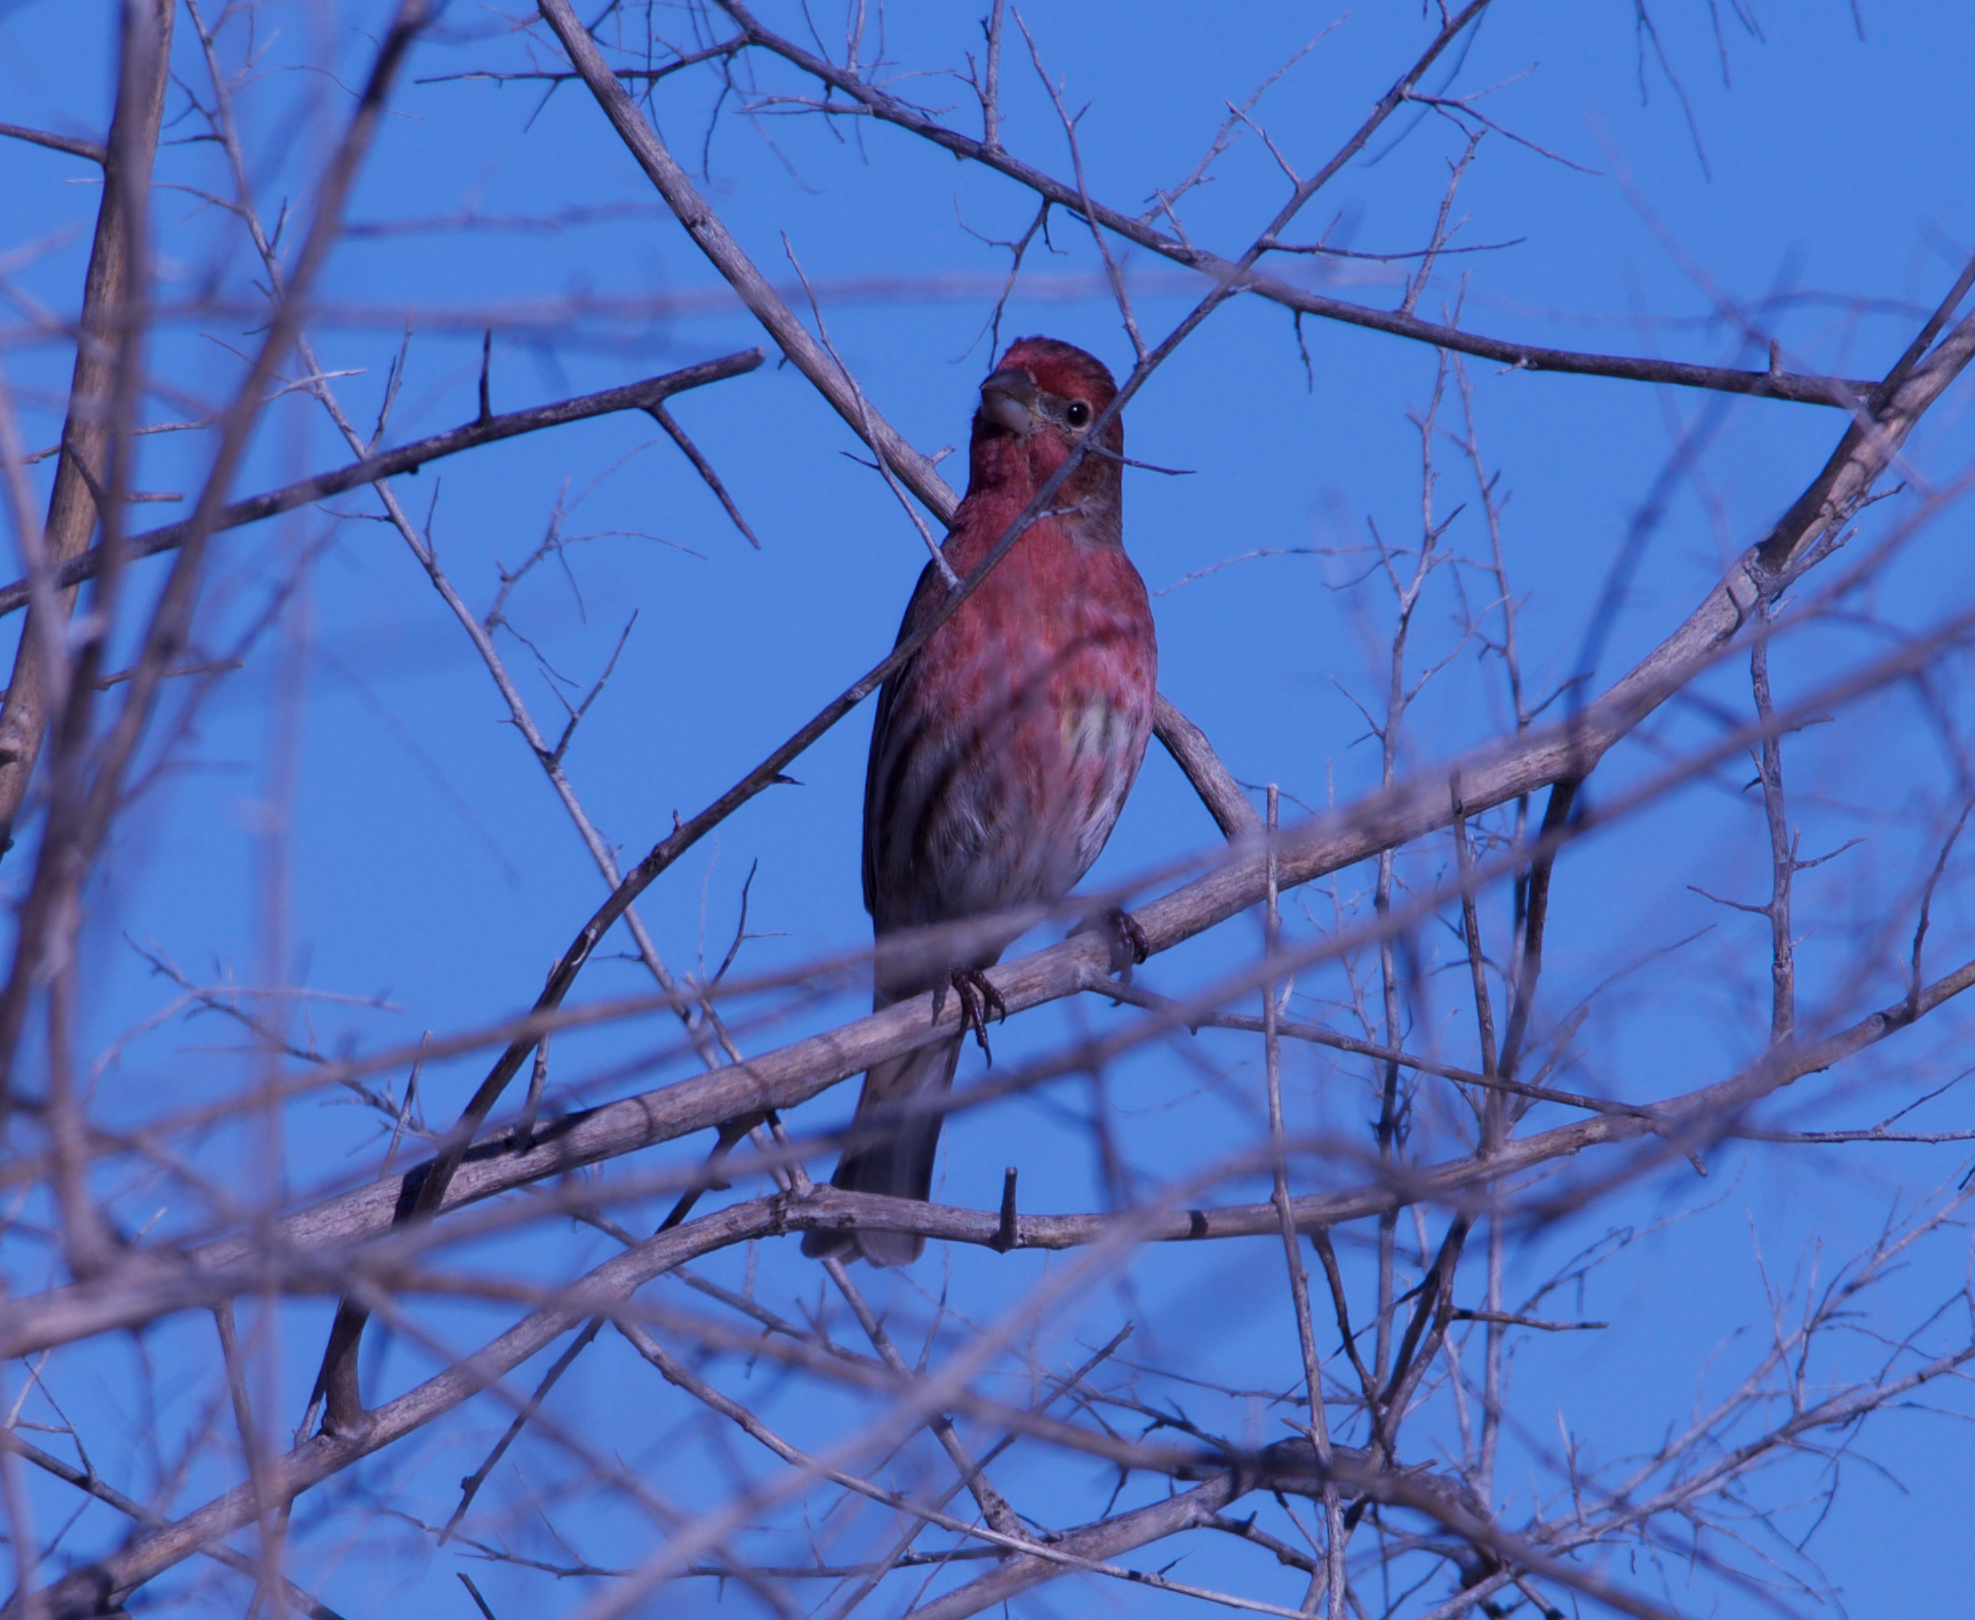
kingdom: Animalia
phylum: Chordata
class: Aves
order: Passeriformes
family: Fringillidae
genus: Haemorhous
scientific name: Haemorhous mexicanus
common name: House finch
